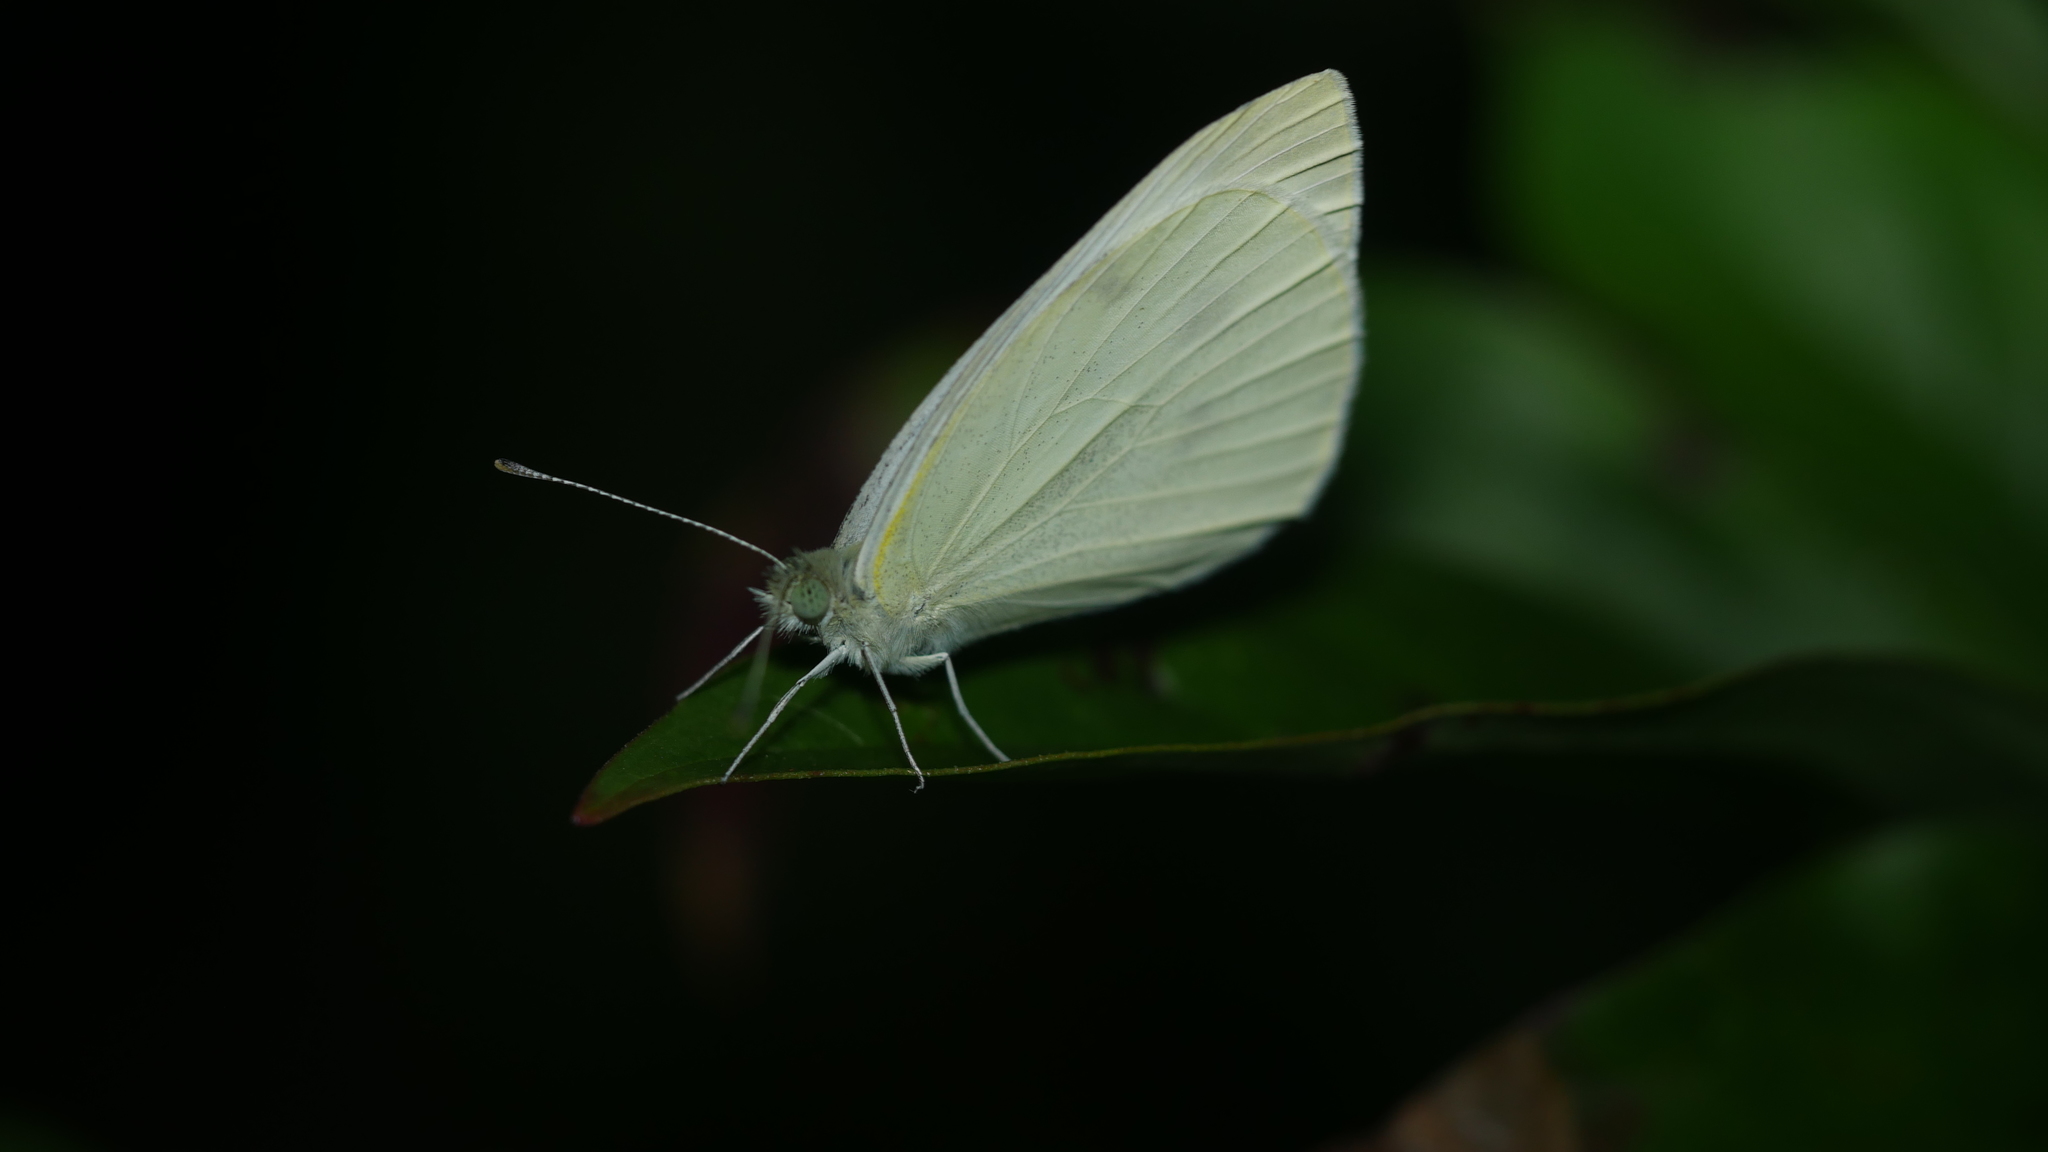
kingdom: Animalia
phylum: Arthropoda
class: Insecta
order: Lepidoptera
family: Pieridae
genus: Pieris
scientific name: Pieris rapae
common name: Small white
